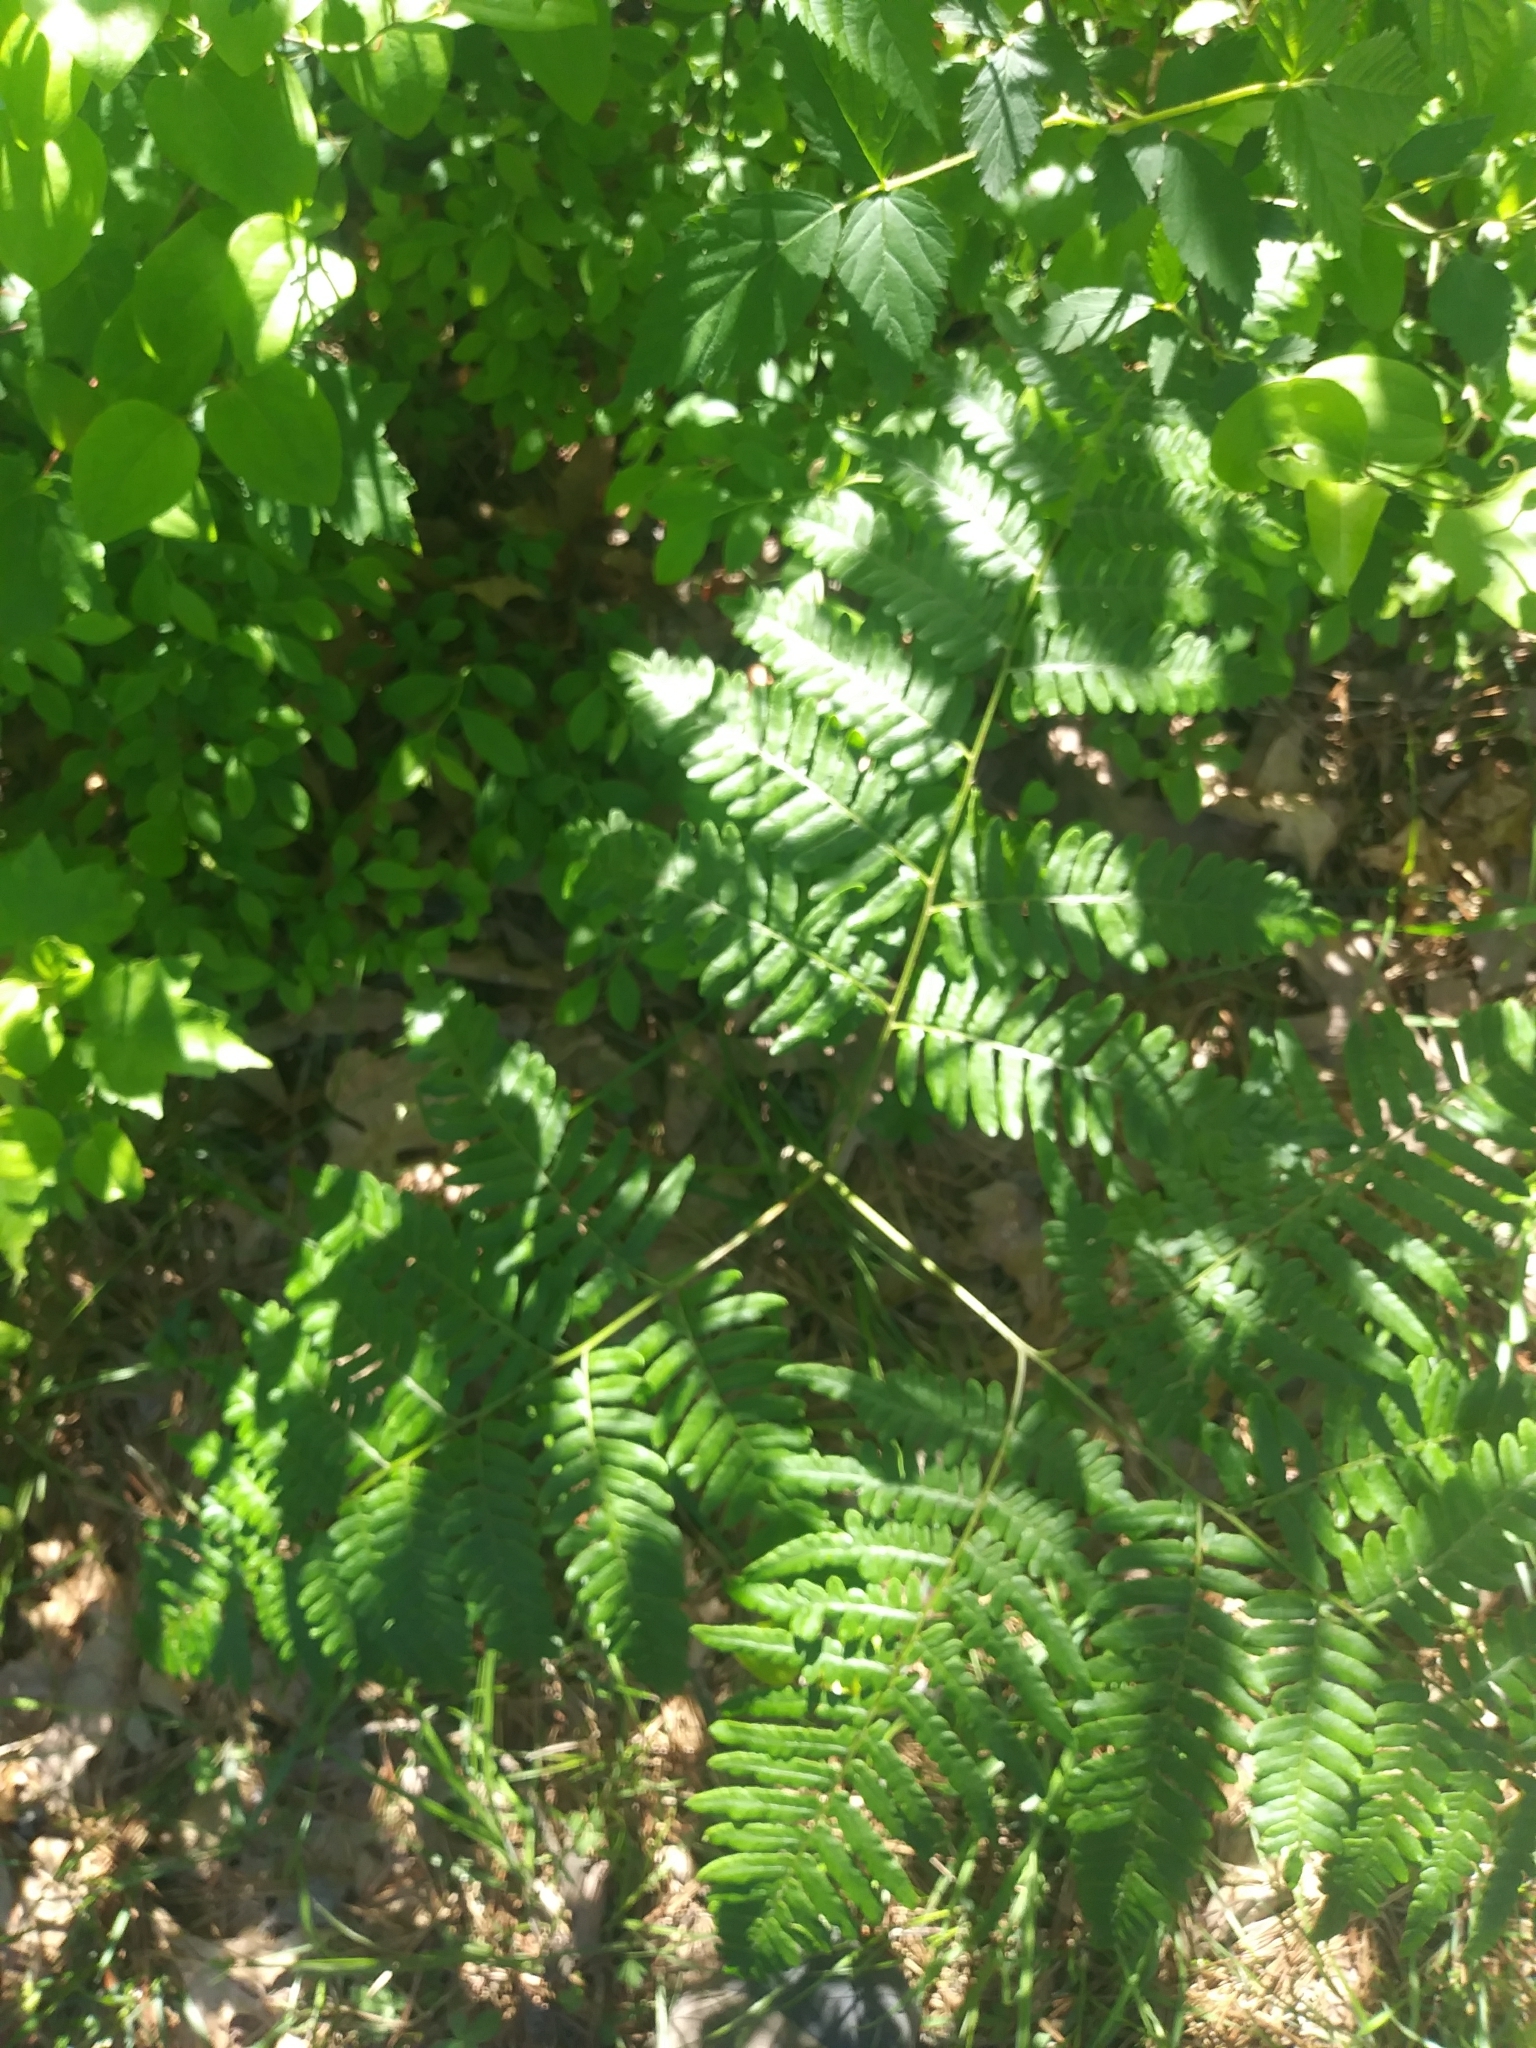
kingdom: Plantae
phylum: Tracheophyta
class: Polypodiopsida
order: Polypodiales
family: Dennstaedtiaceae
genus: Pteridium
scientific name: Pteridium aquilinum
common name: Bracken
